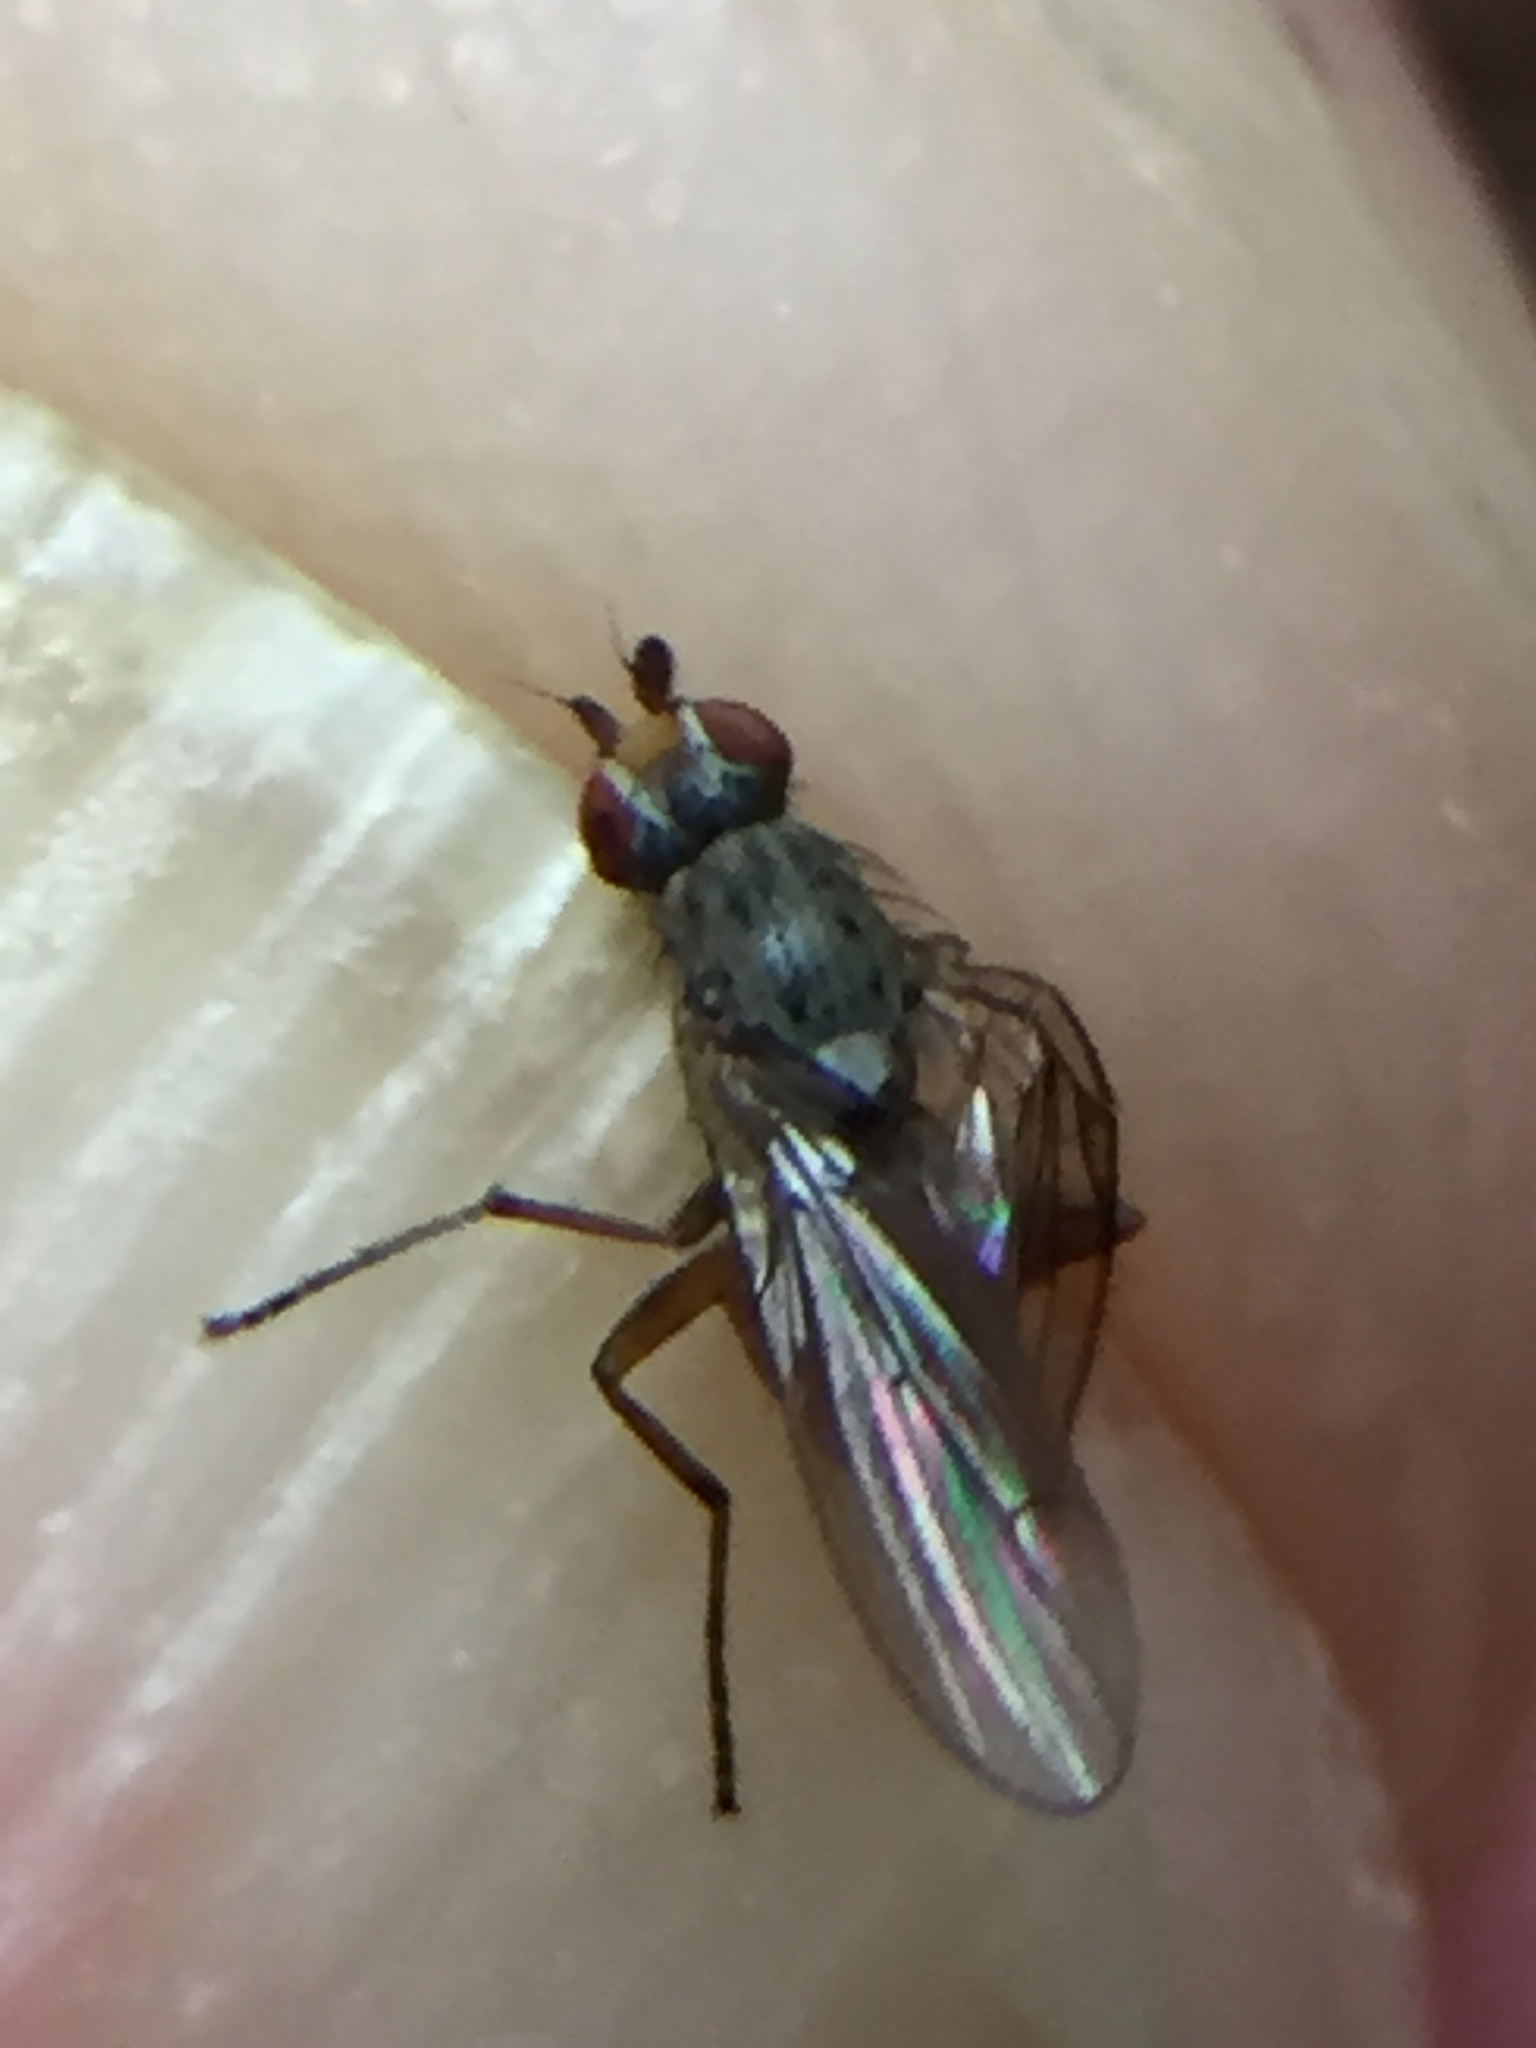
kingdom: Animalia
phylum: Arthropoda
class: Insecta
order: Diptera
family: Heleomyzidae
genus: Tephrochlamys
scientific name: Tephrochlamys rufiventris
